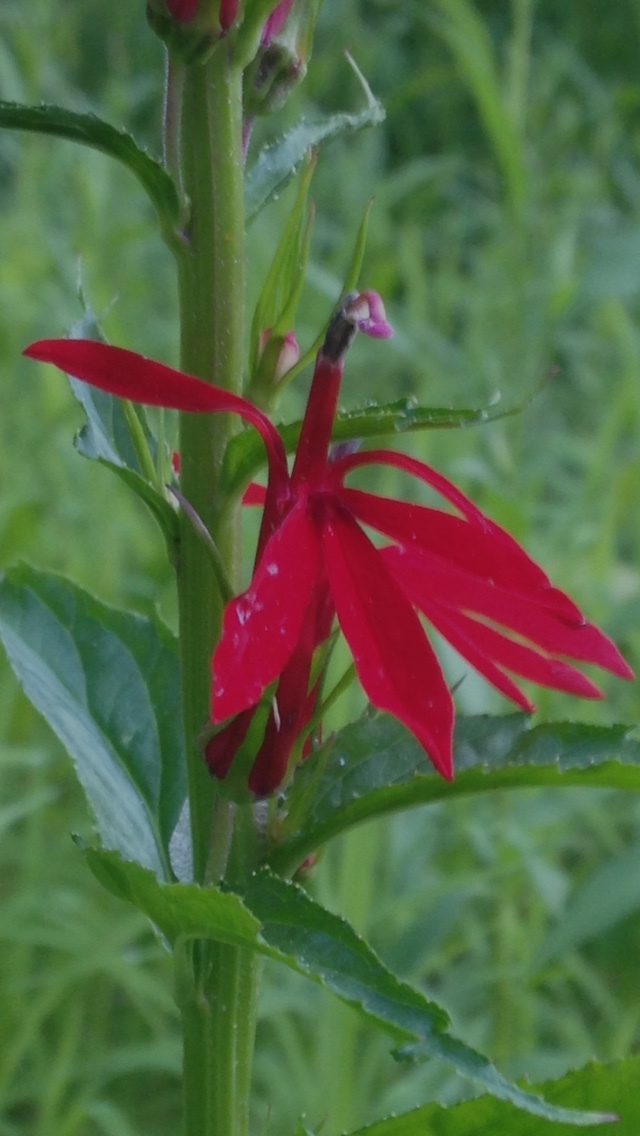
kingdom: Plantae
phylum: Tracheophyta
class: Magnoliopsida
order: Asterales
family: Campanulaceae
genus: Lobelia
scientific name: Lobelia cardinalis
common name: Cardinal flower
